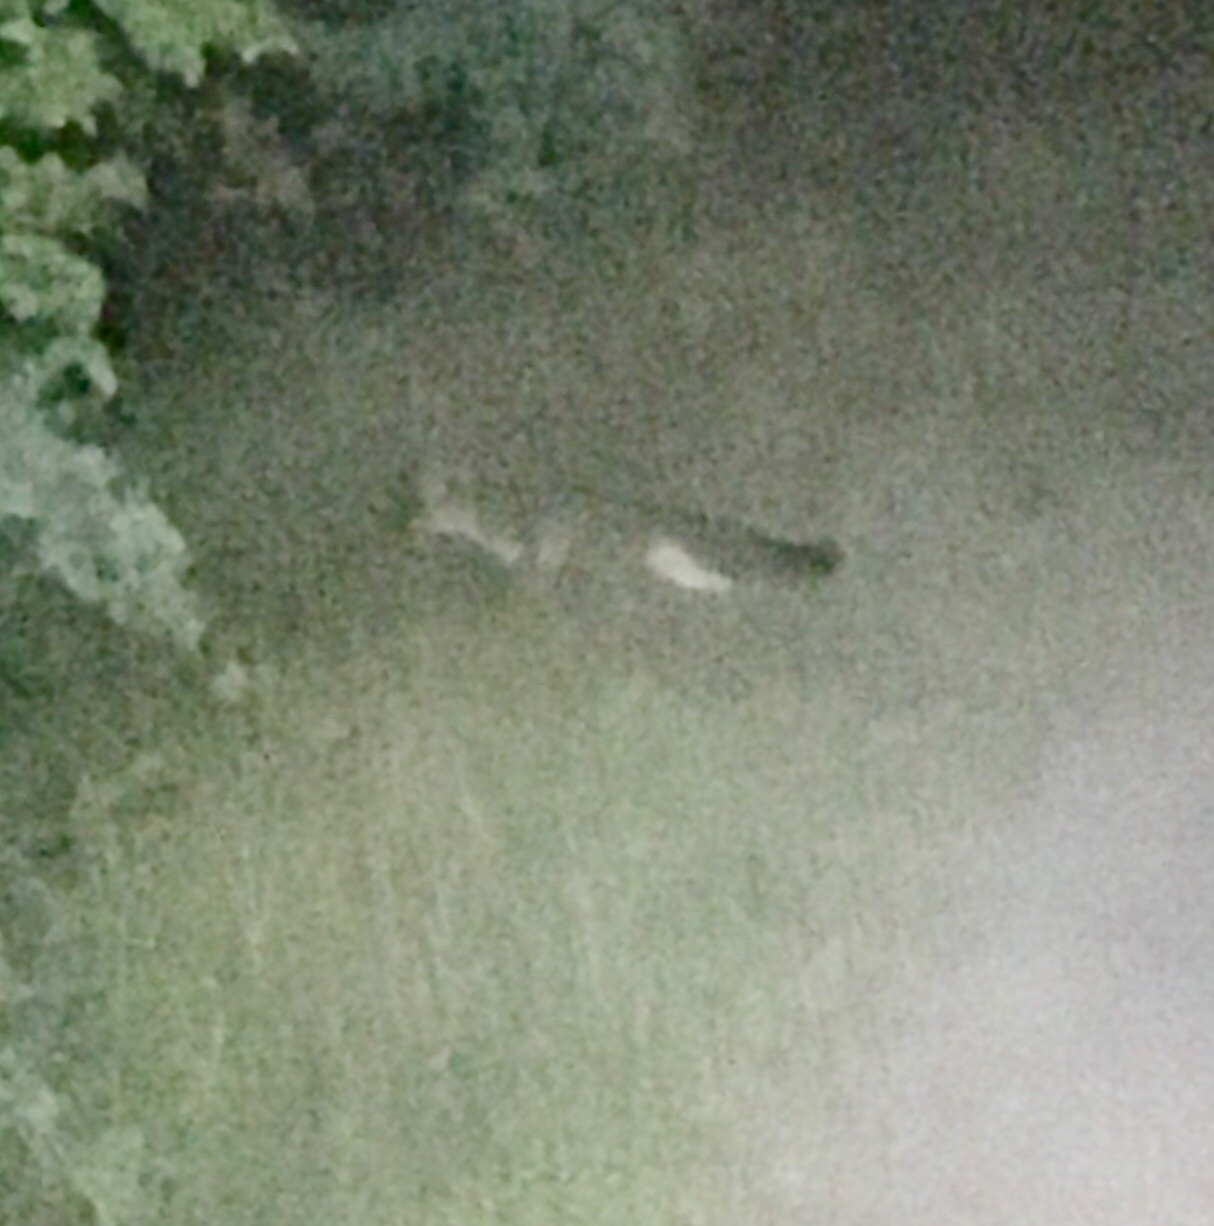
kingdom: Animalia
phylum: Chordata
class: Mammalia
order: Carnivora
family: Canidae
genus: Urocyon
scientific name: Urocyon cinereoargenteus
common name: Gray fox
